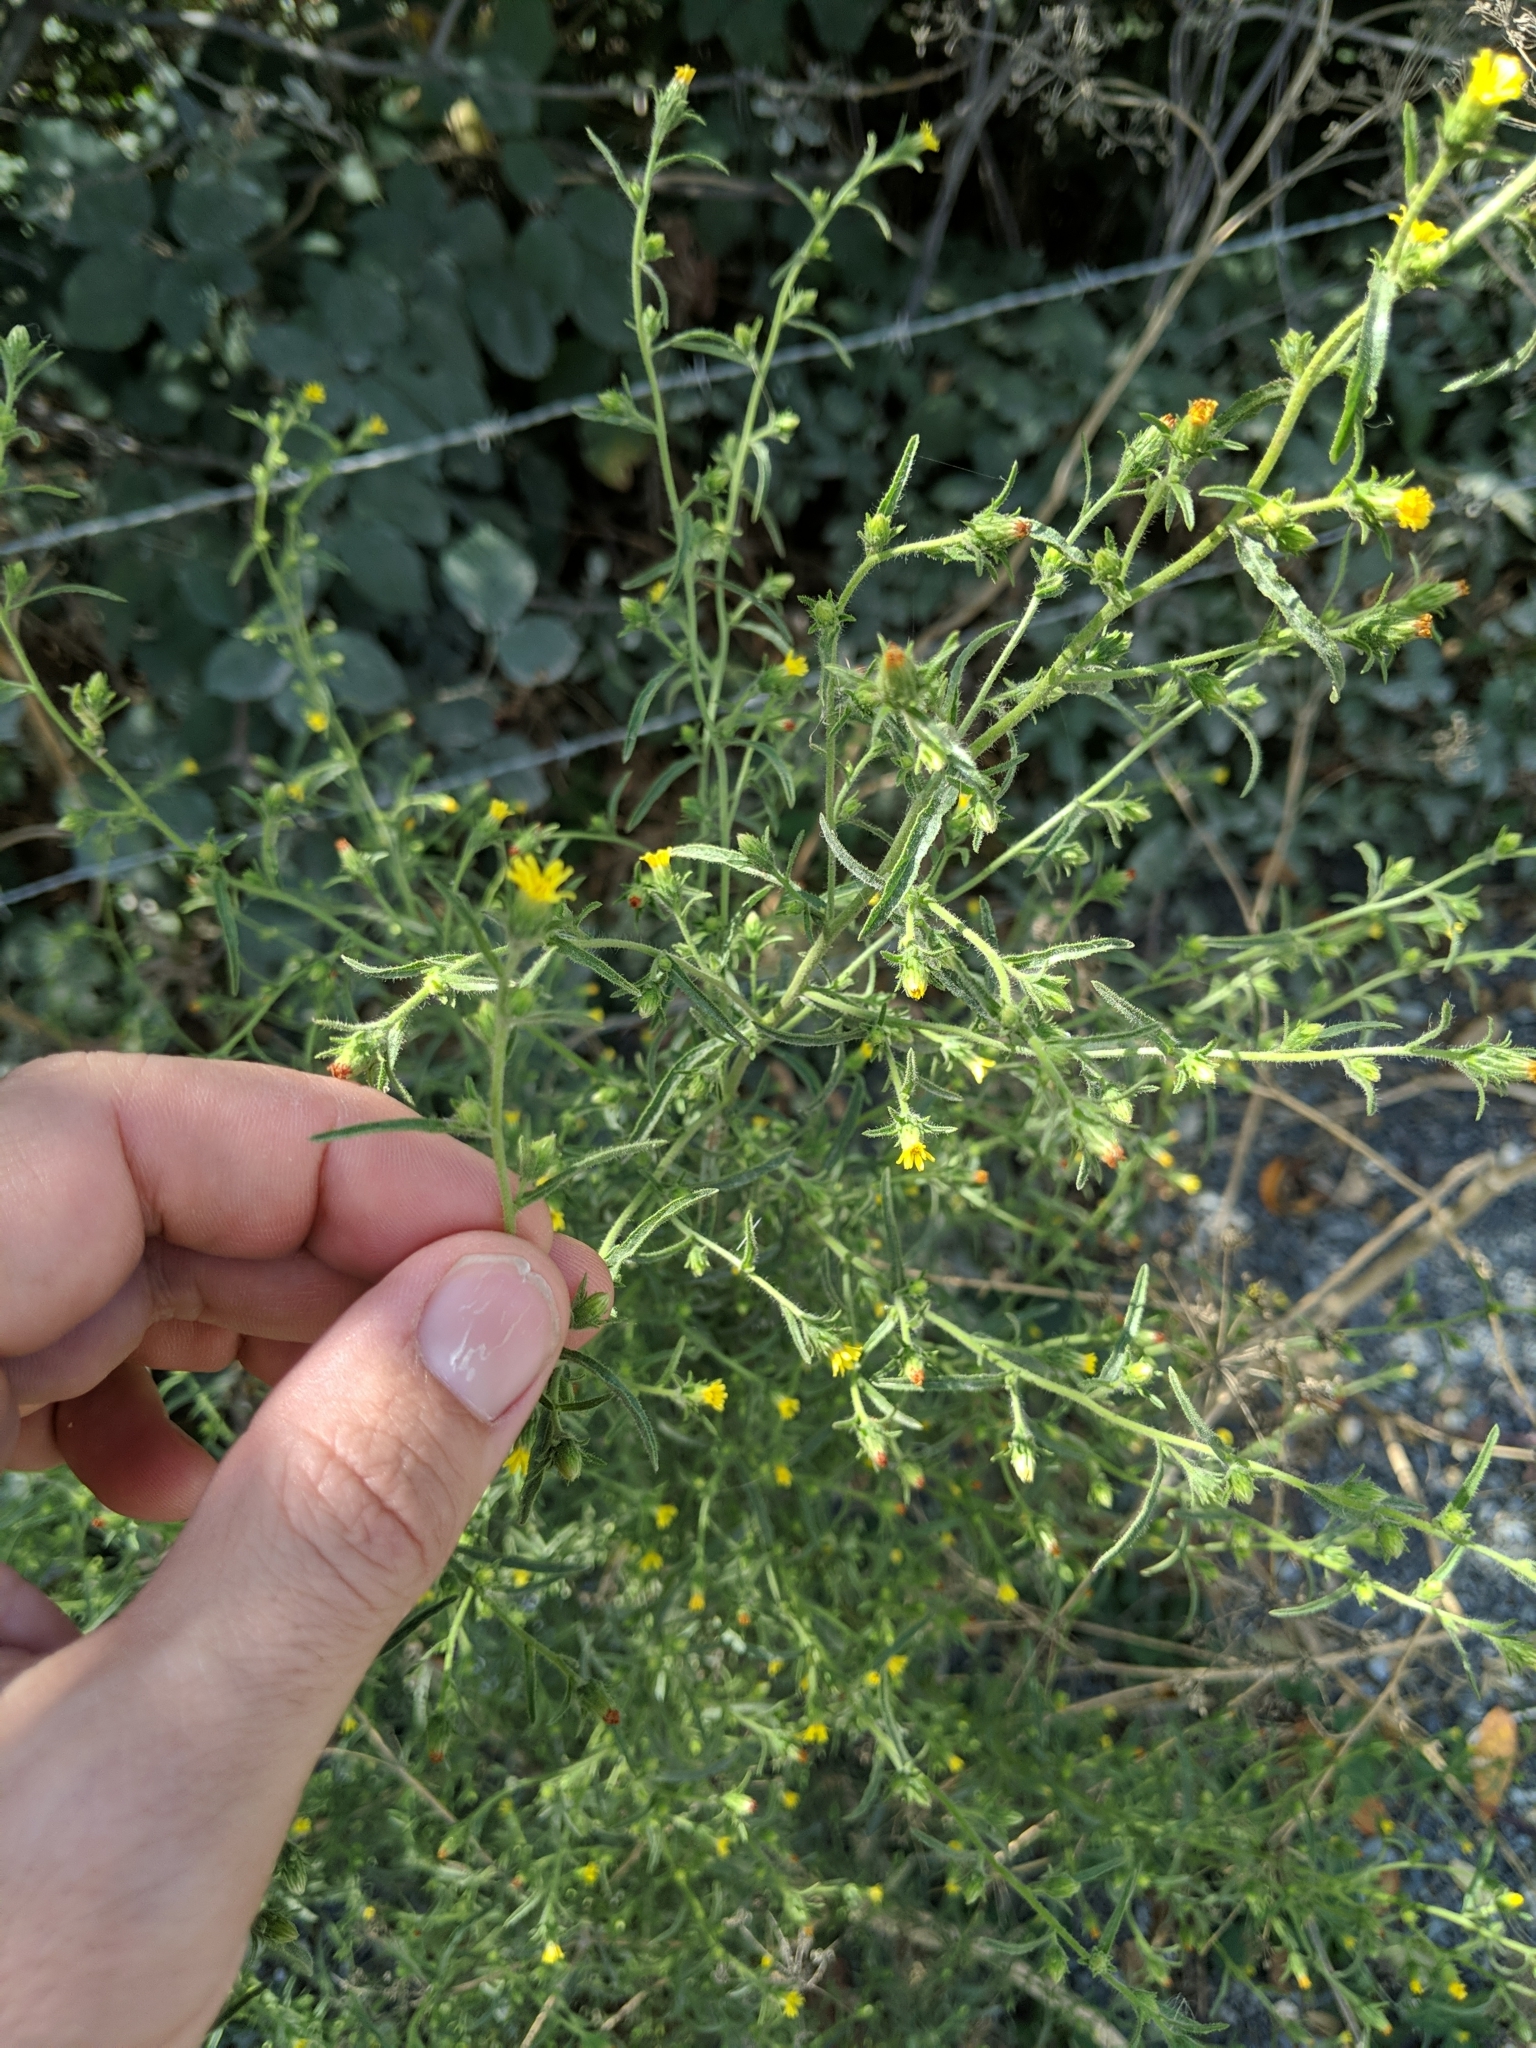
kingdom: Plantae
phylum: Tracheophyta
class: Magnoliopsida
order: Asterales
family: Asteraceae
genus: Dittrichia
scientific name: Dittrichia graveolens
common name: Stinking fleabane
